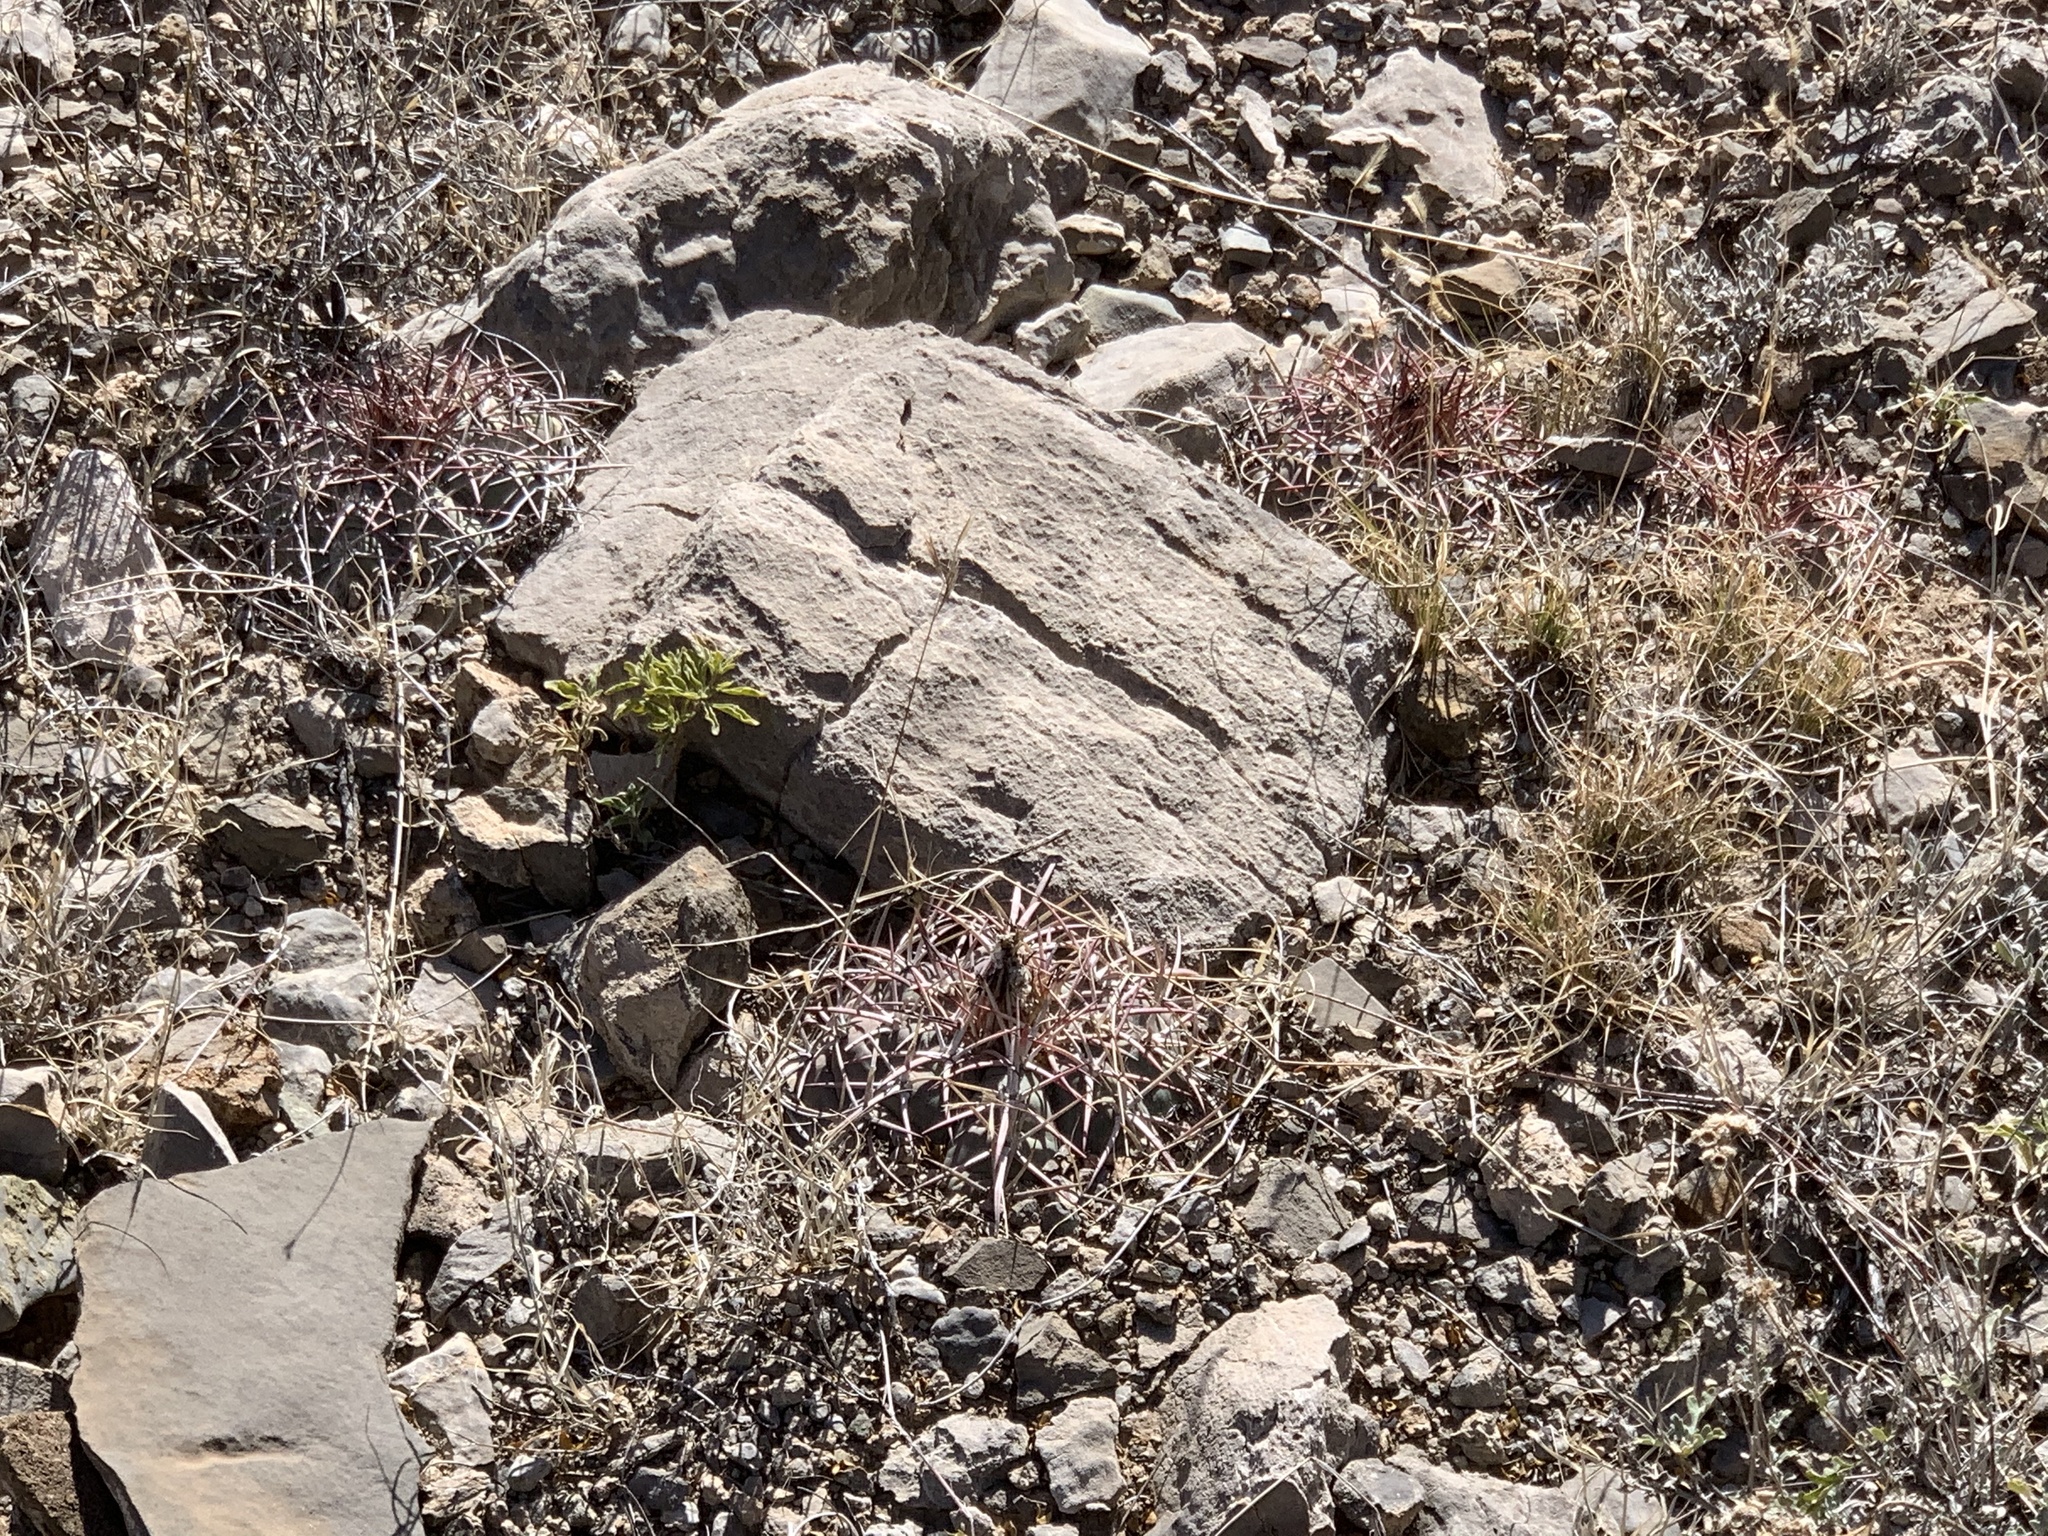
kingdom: Plantae
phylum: Tracheophyta
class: Magnoliopsida
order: Caryophyllales
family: Cactaceae
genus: Echinocactus
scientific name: Echinocactus horizonthalonius
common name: Devilshead
